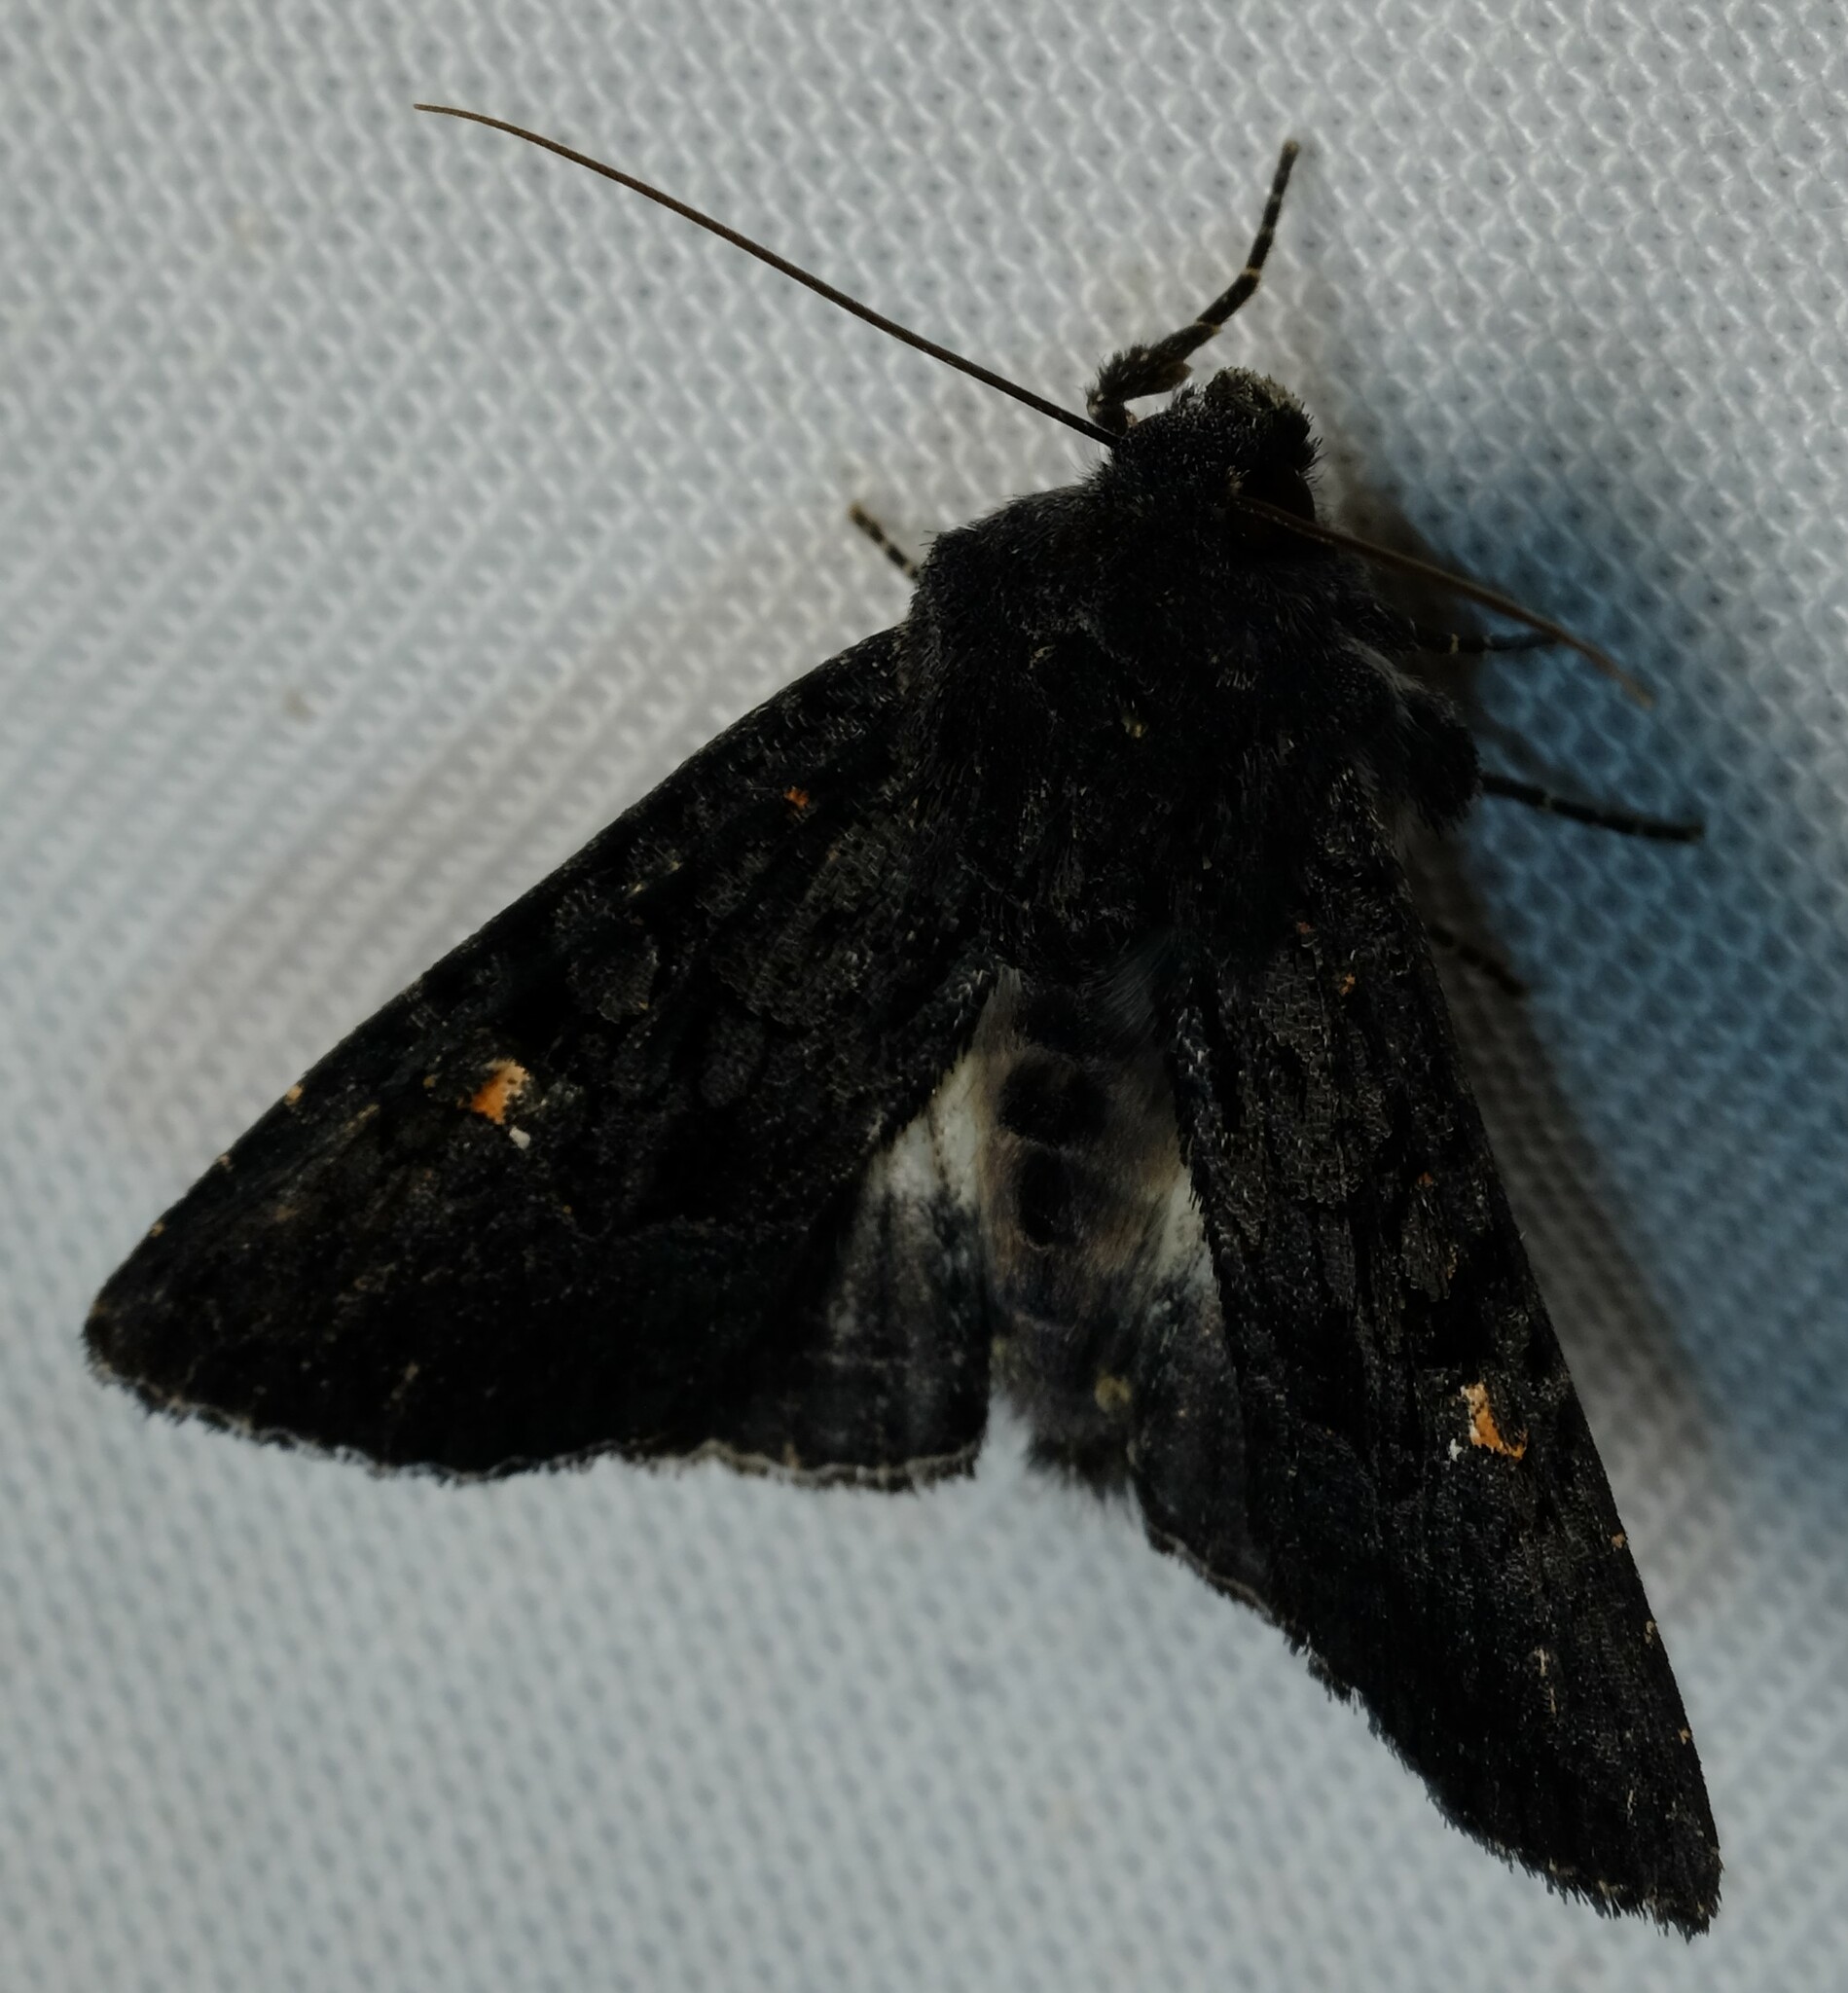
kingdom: Animalia
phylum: Arthropoda
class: Insecta
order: Lepidoptera
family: Noctuidae
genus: Neumichtis
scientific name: Neumichtis nigerrima
